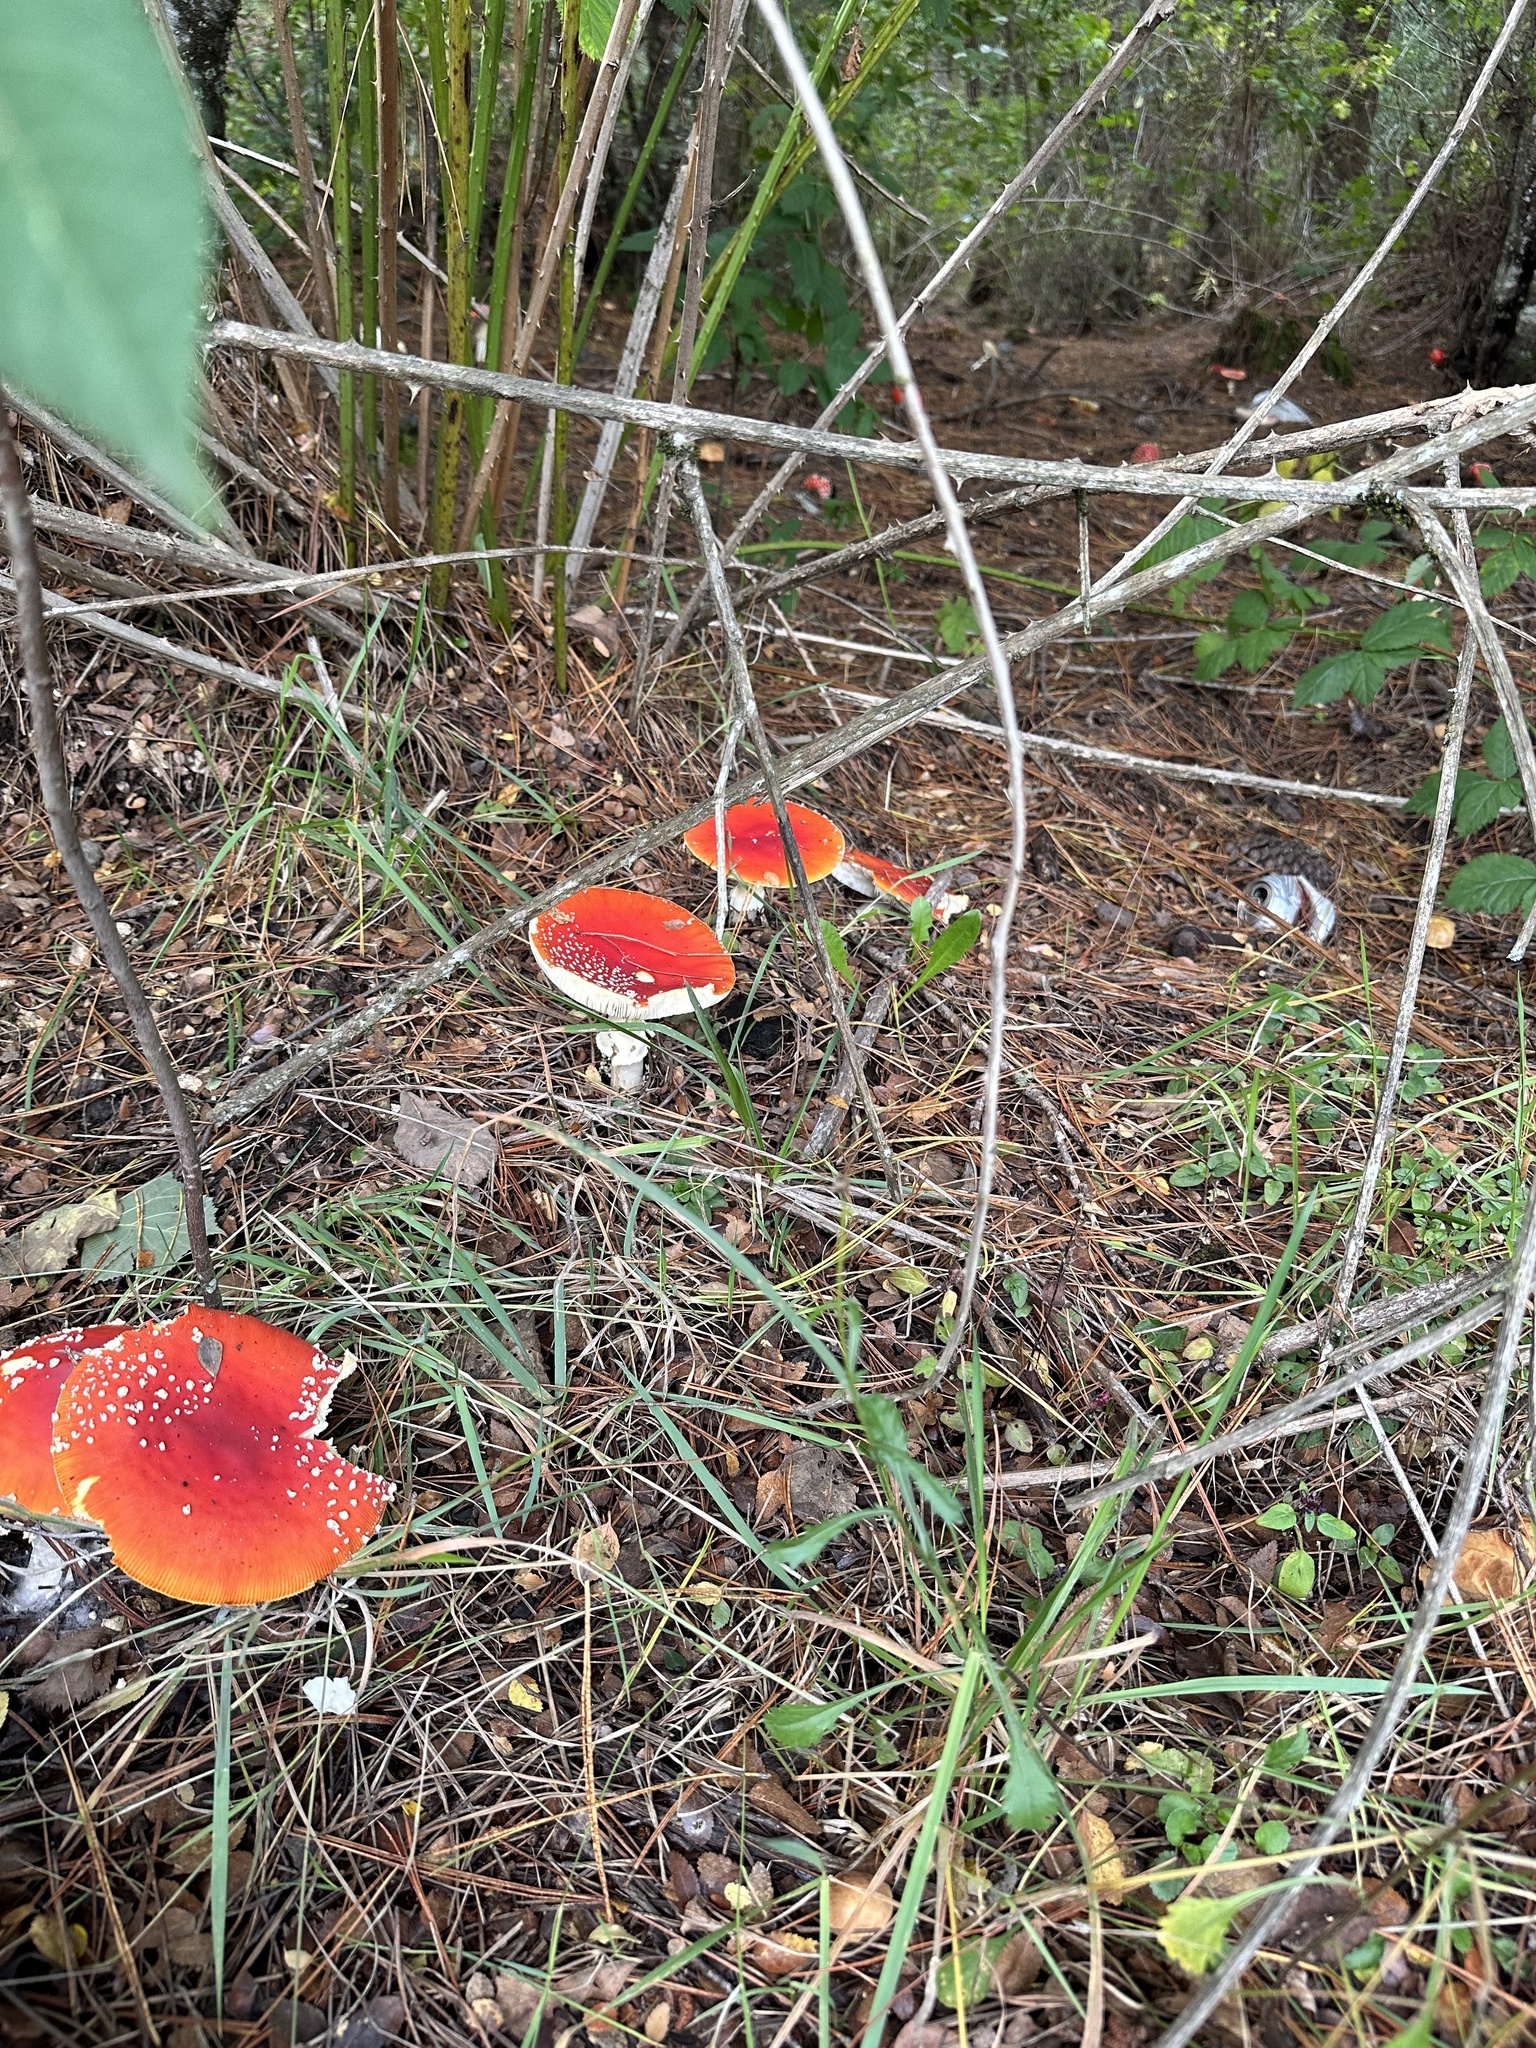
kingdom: Fungi
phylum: Basidiomycota
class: Agaricomycetes
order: Agaricales
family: Amanitaceae
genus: Amanita
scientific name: Amanita muscaria
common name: Fly agaric
